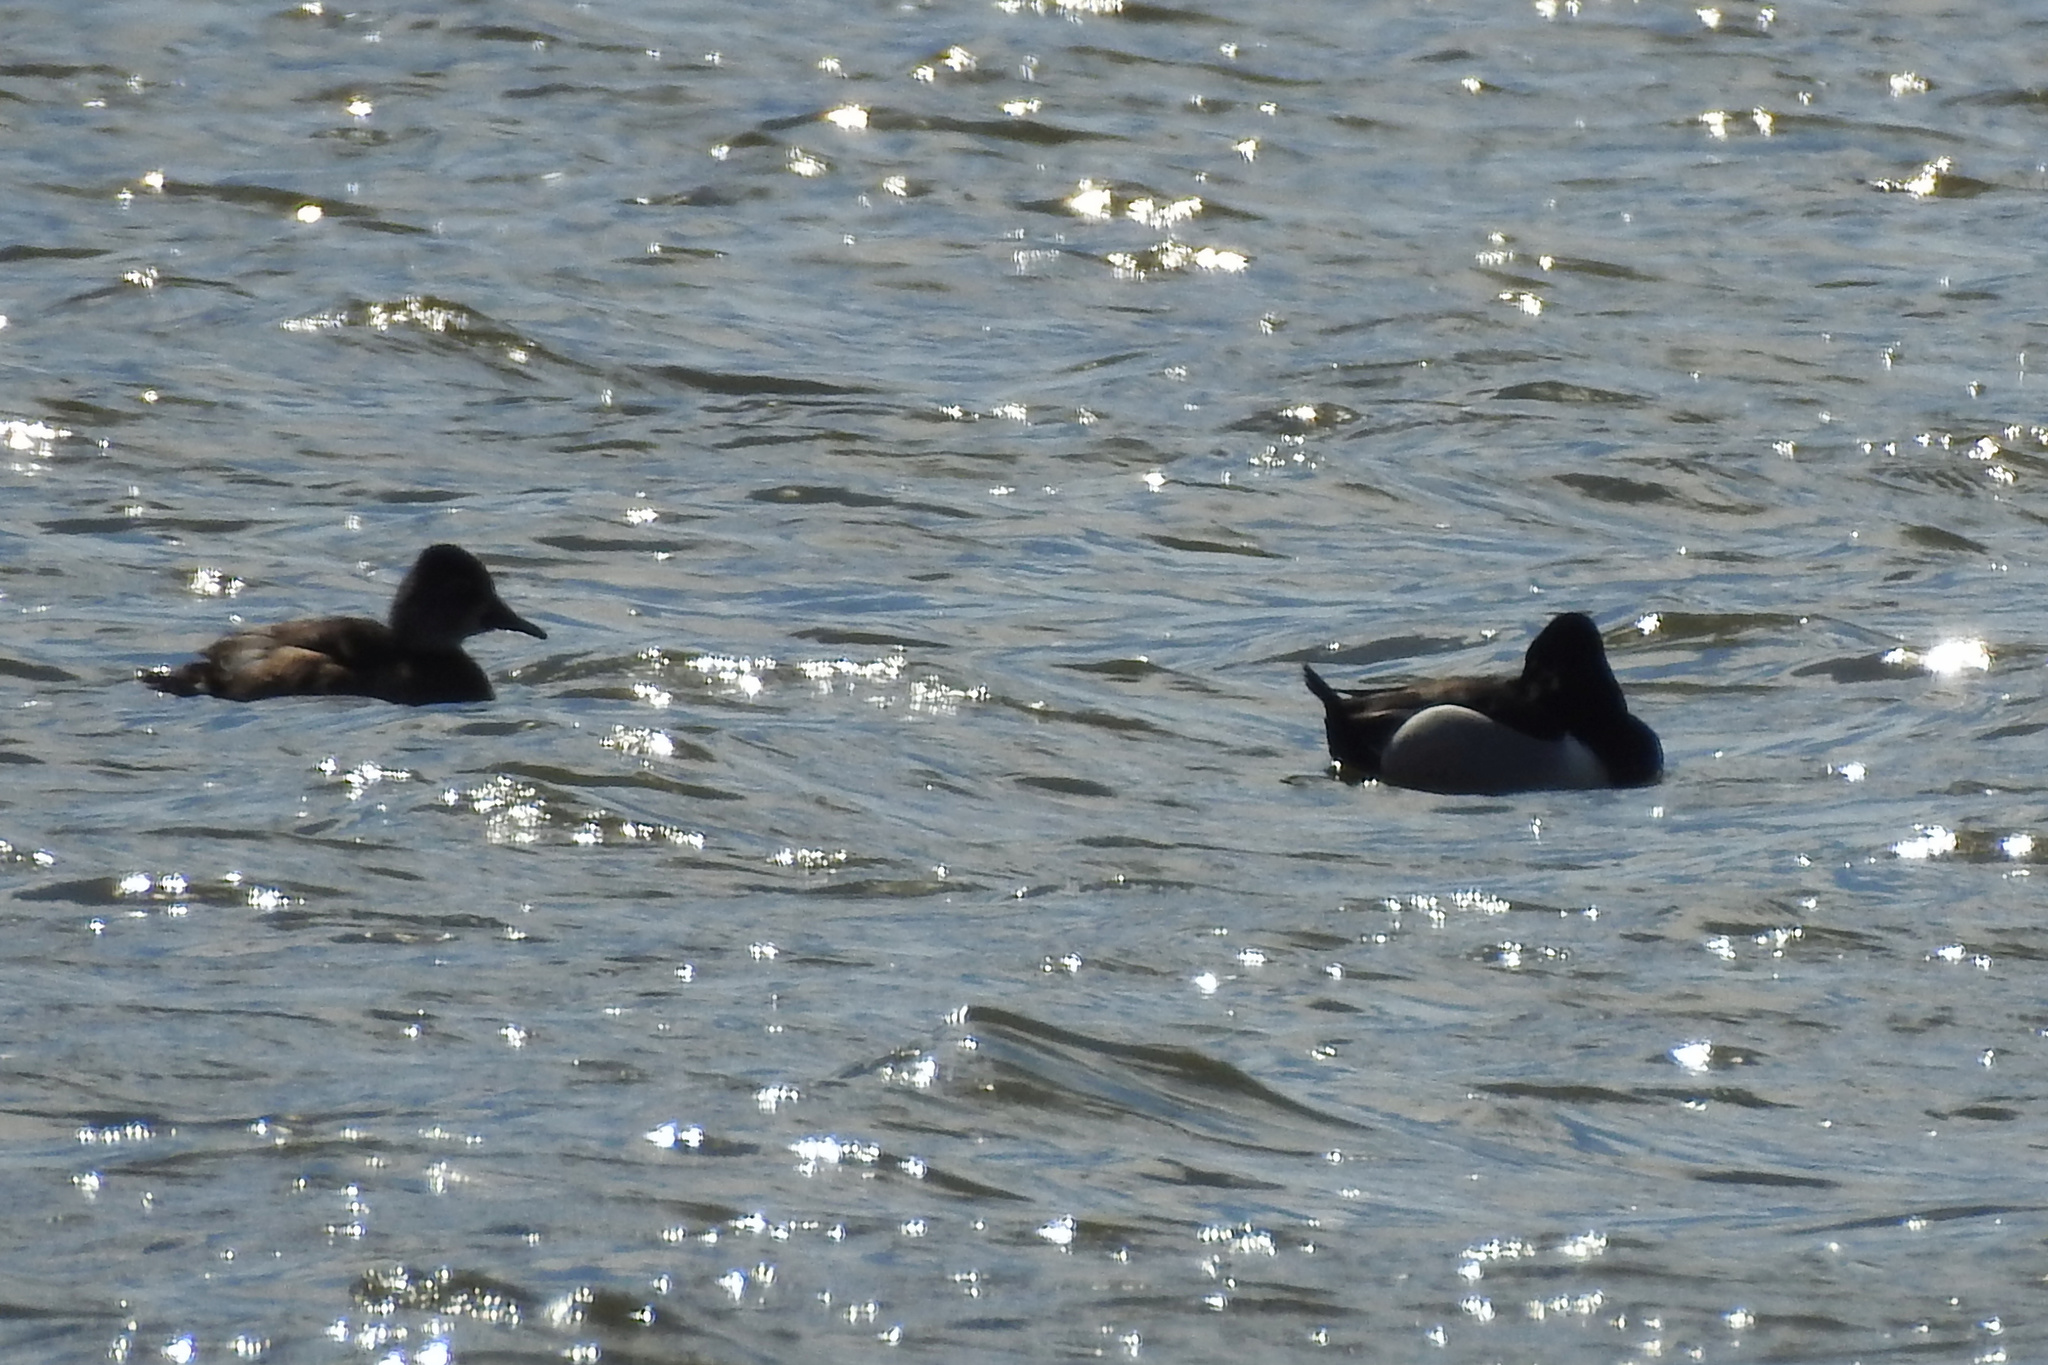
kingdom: Animalia
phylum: Chordata
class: Aves
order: Anseriformes
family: Anatidae
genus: Aythya
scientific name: Aythya collaris
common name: Ring-necked duck
